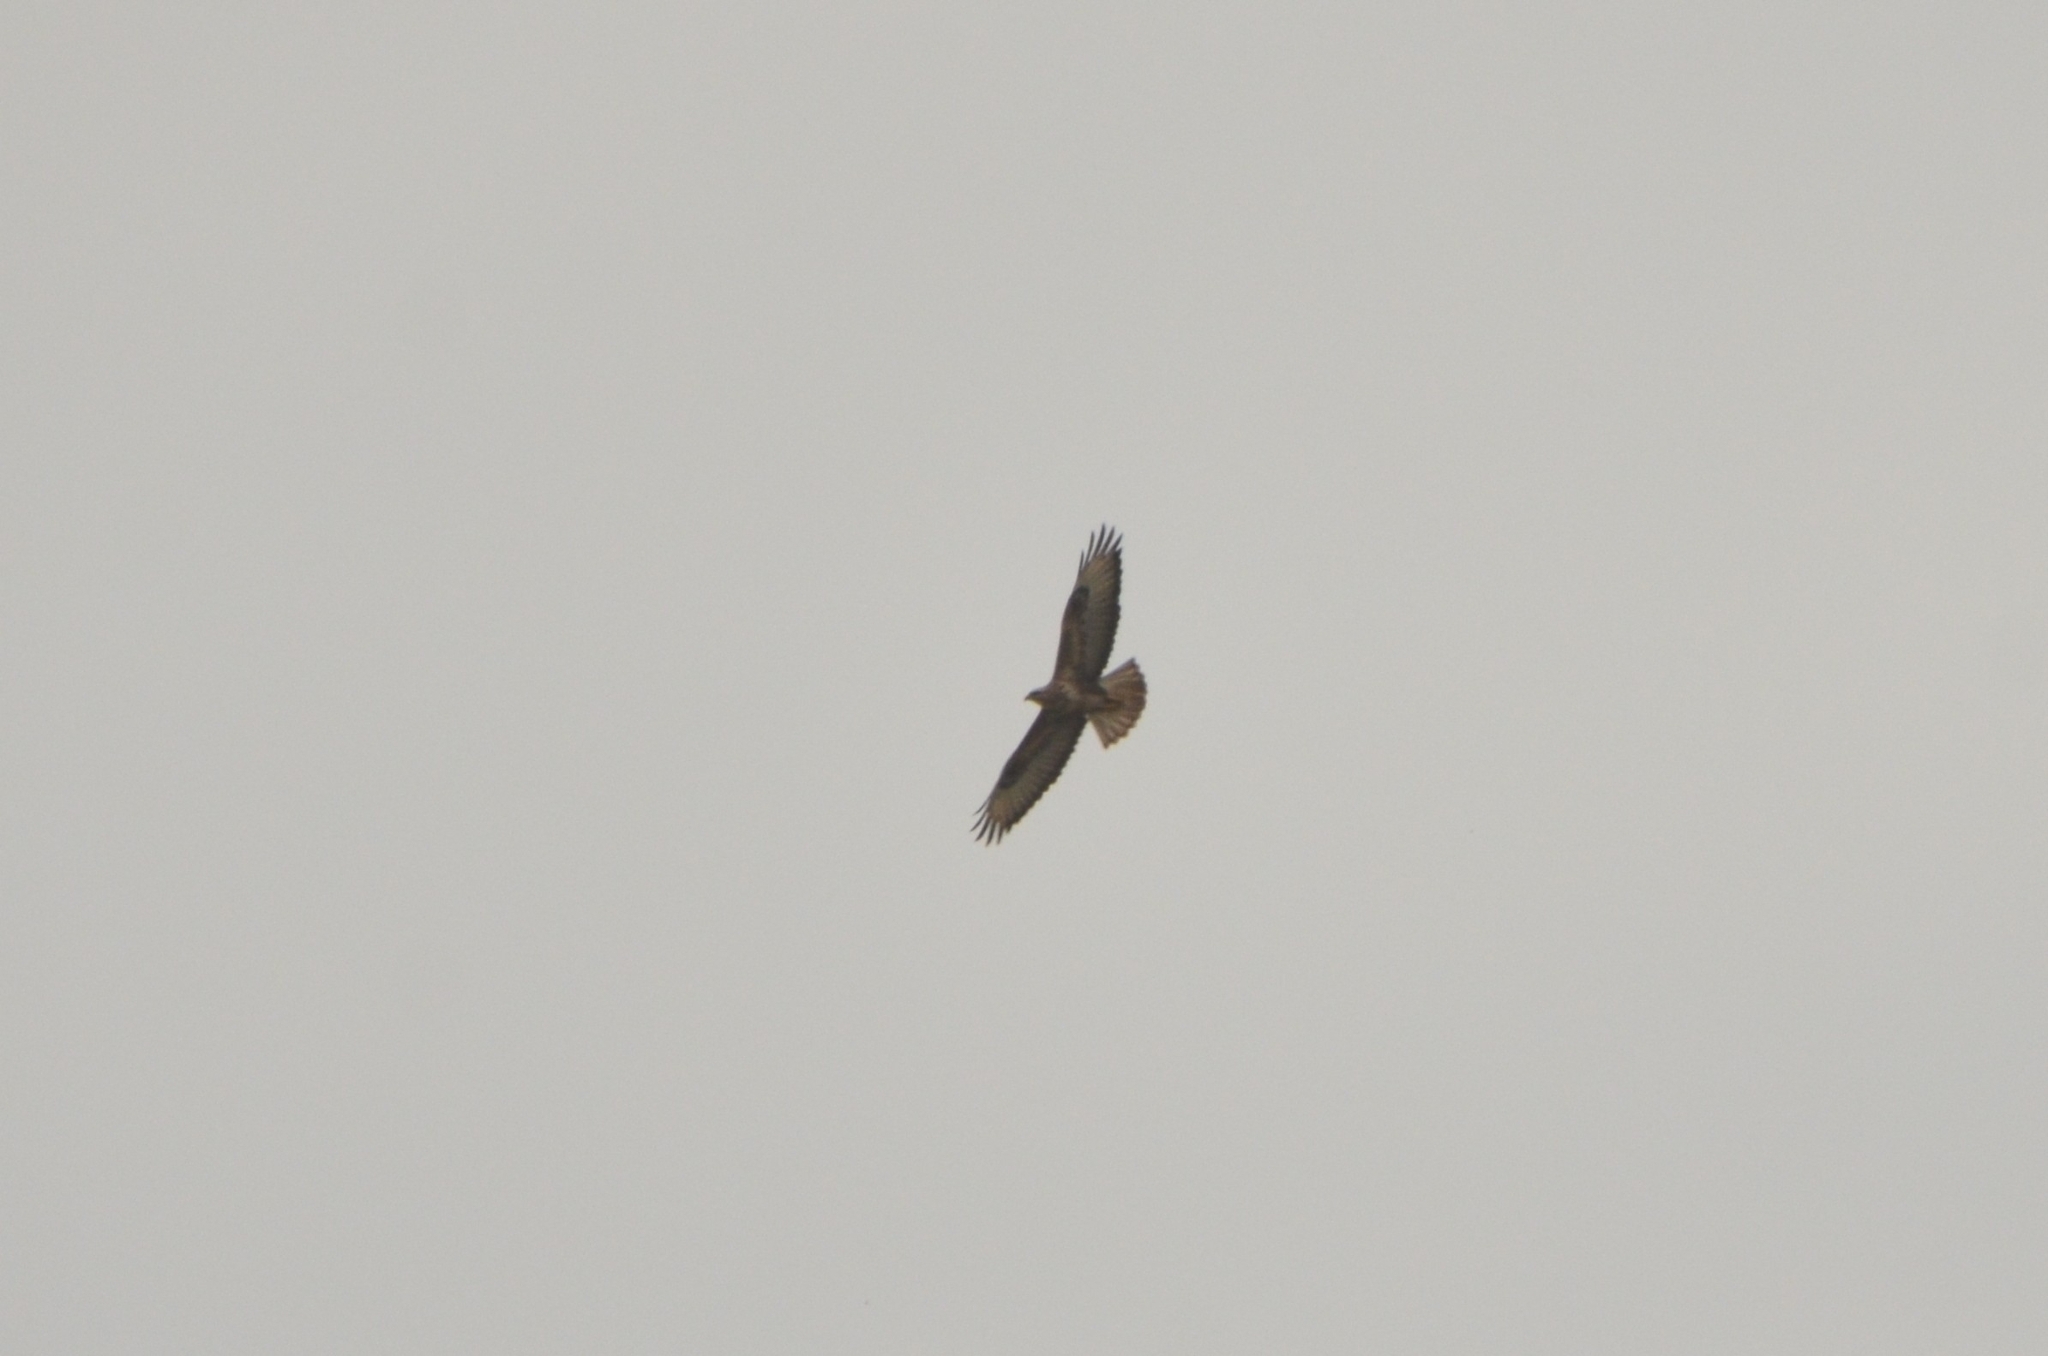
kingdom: Animalia
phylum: Chordata
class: Aves
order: Accipitriformes
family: Accipitridae
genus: Buteo
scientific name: Buteo buteo
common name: Common buzzard
